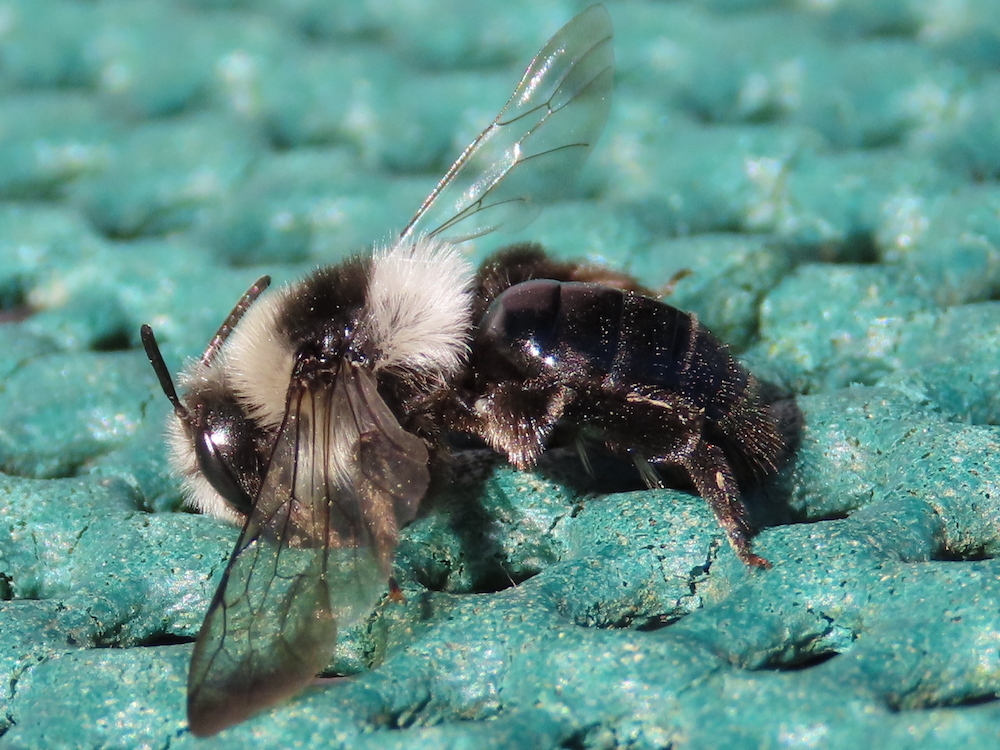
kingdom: Animalia
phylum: Arthropoda
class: Insecta
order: Hymenoptera
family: Andrenidae
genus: Andrena
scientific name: Andrena cineraria
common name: Ashy mining bee
